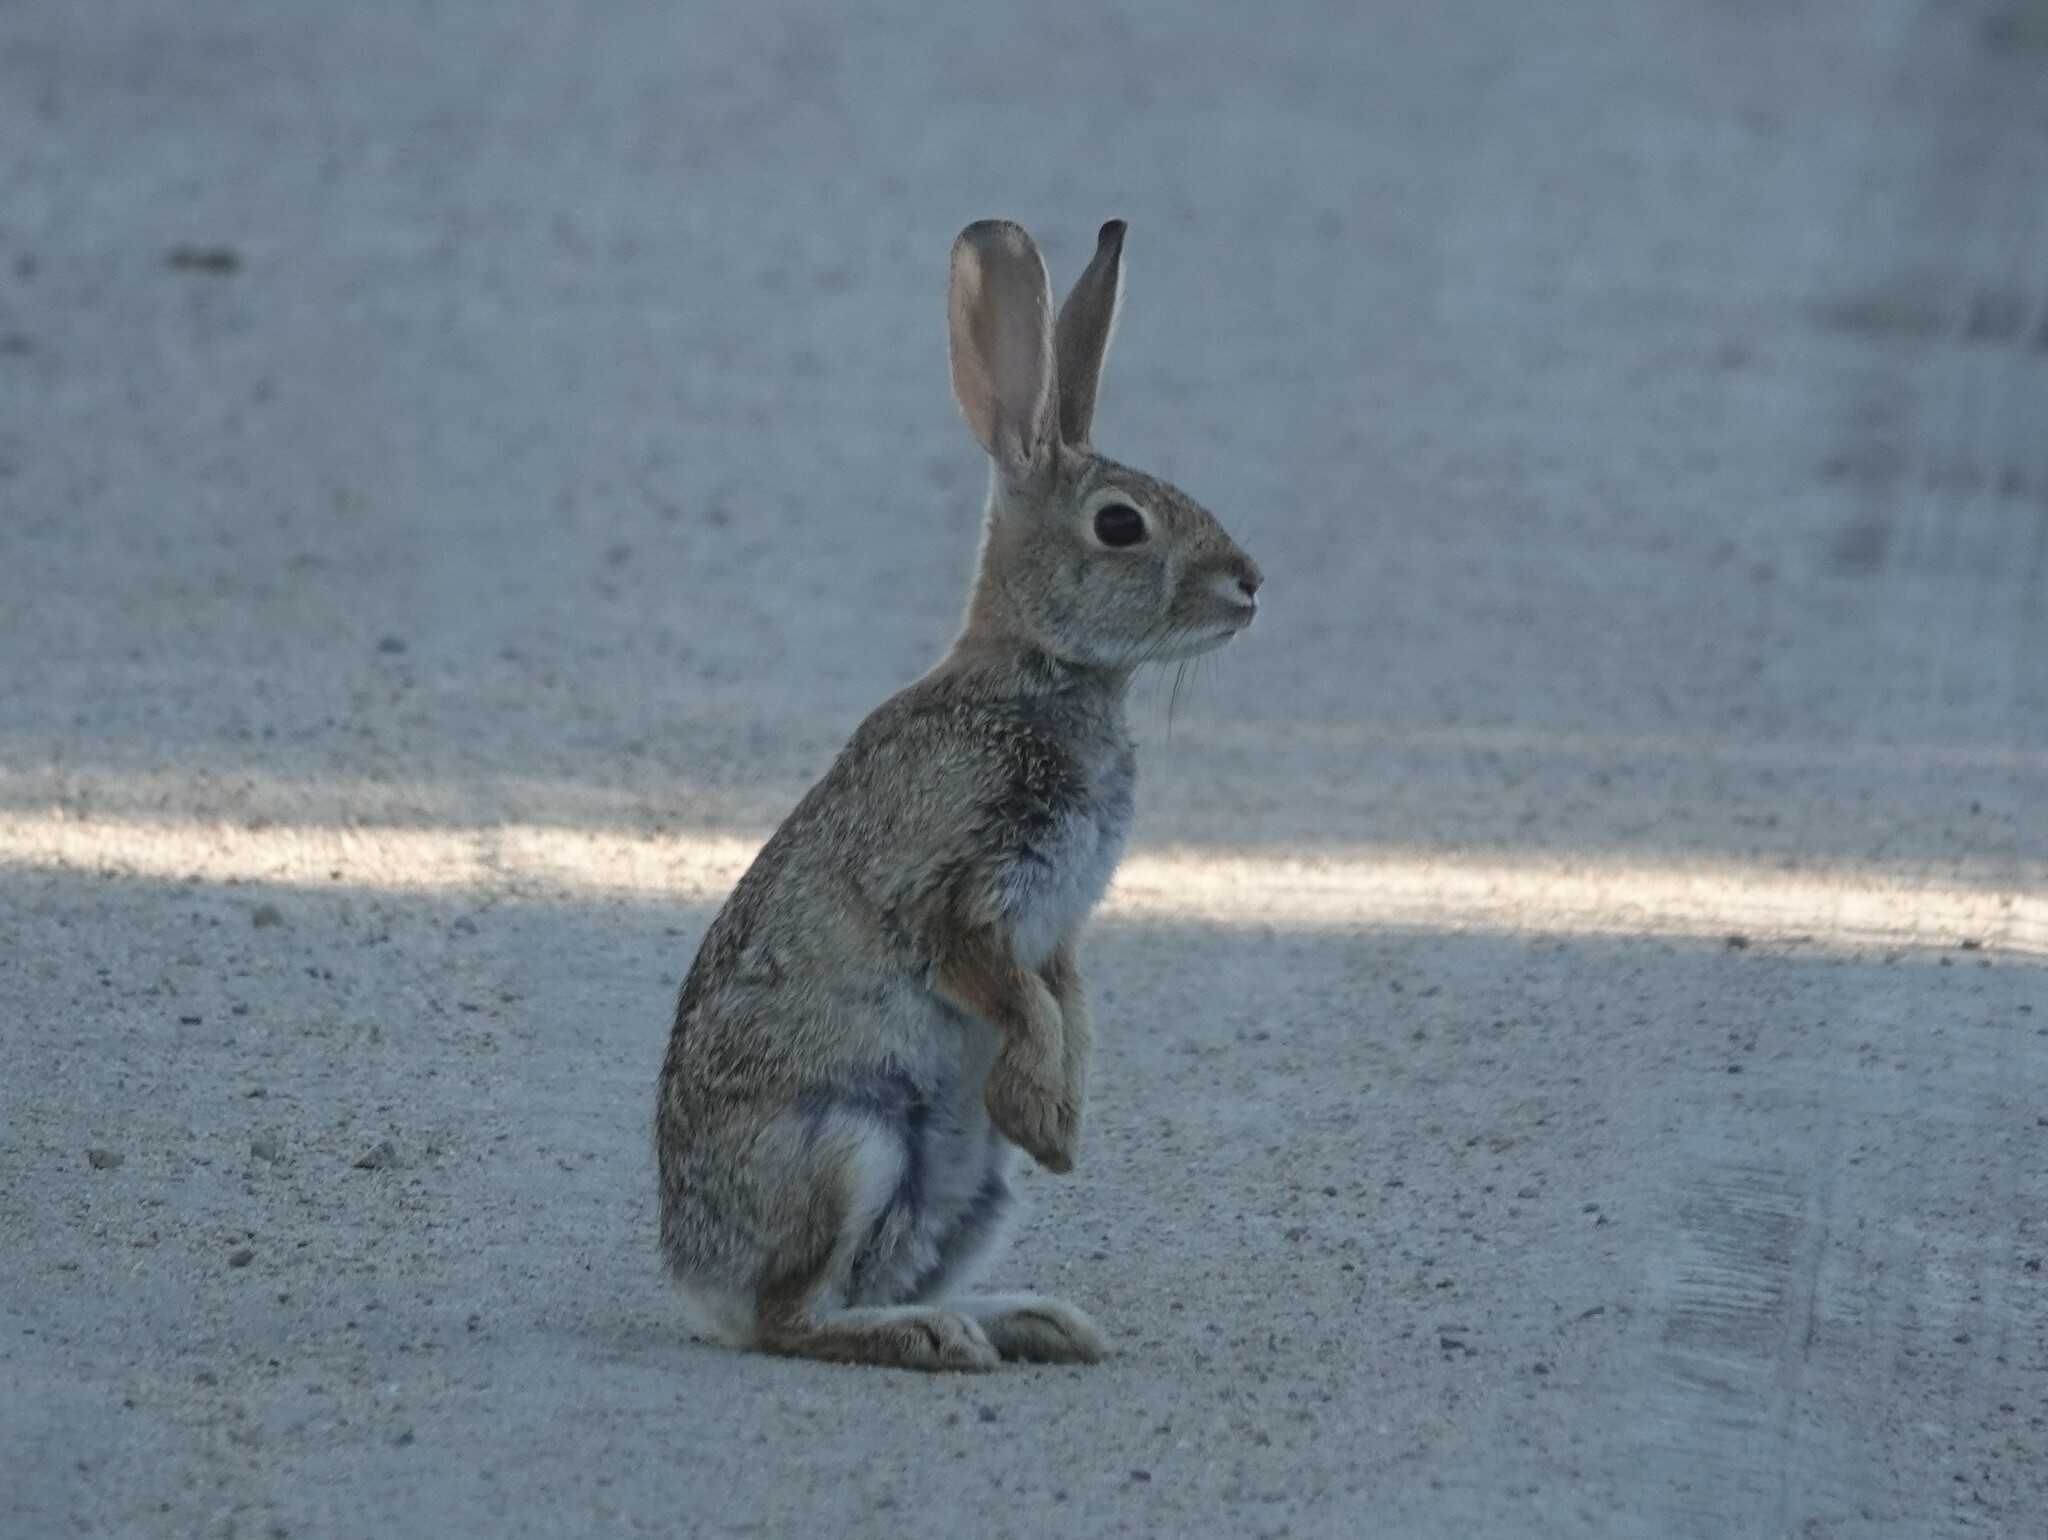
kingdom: Animalia
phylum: Chordata
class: Mammalia
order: Lagomorpha
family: Leporidae
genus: Sylvilagus
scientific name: Sylvilagus audubonii
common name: Desert cottontail
